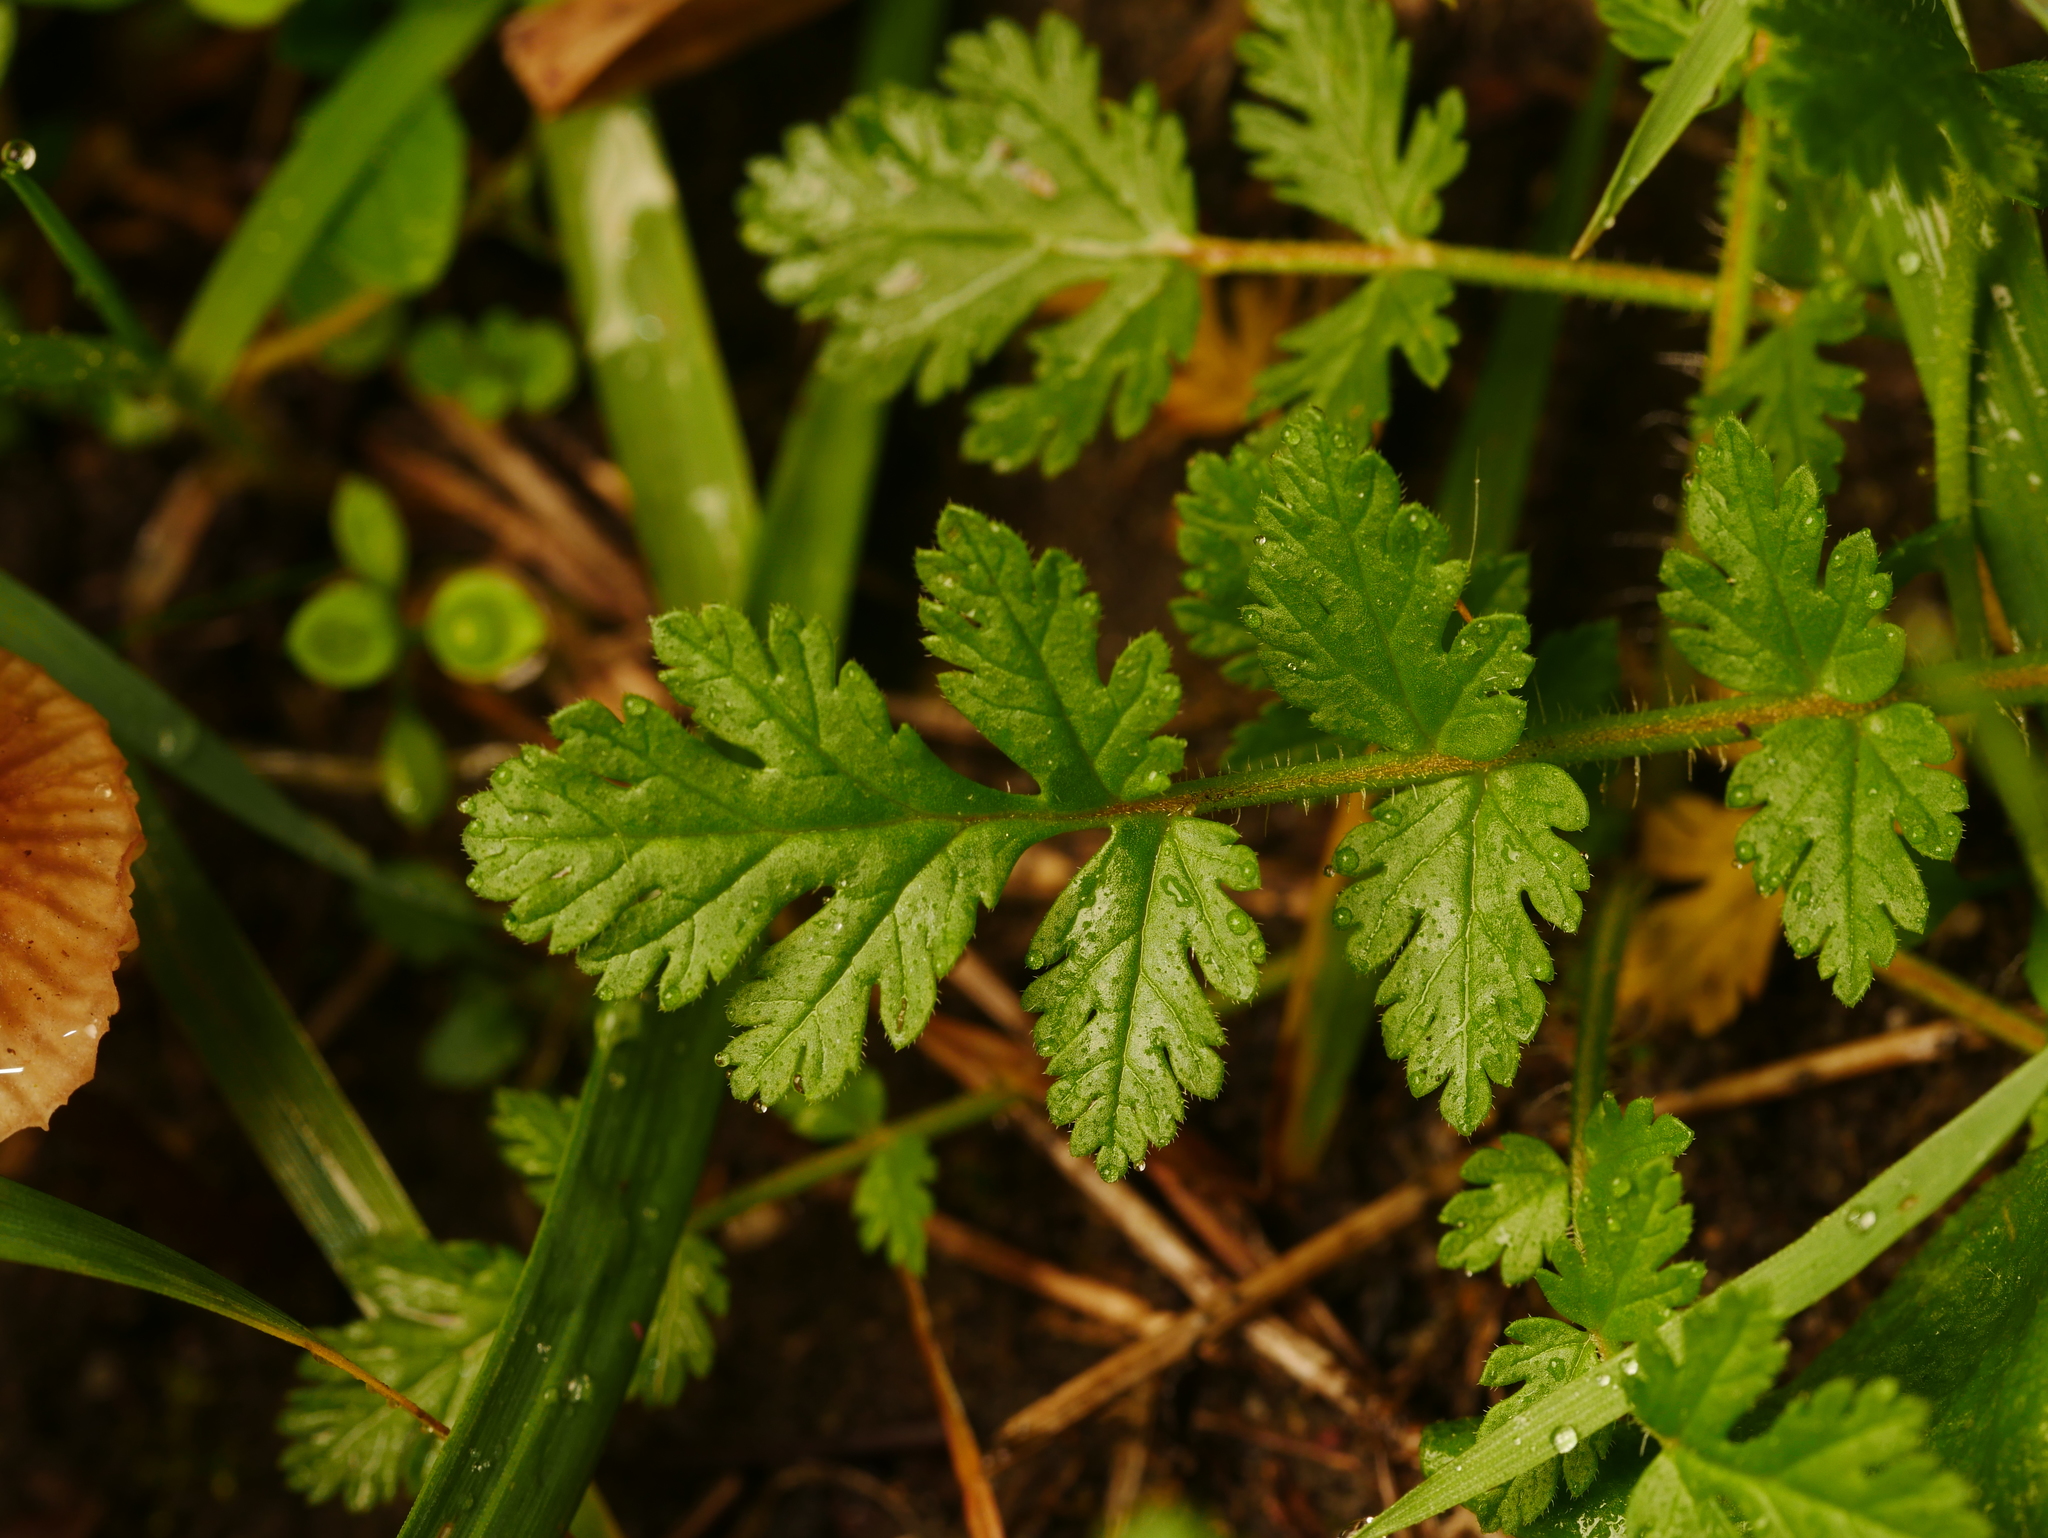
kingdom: Plantae
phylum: Tracheophyta
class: Magnoliopsida
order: Geraniales
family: Geraniaceae
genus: Erodium
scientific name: Erodium cicutarium
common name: Common stork's-bill
